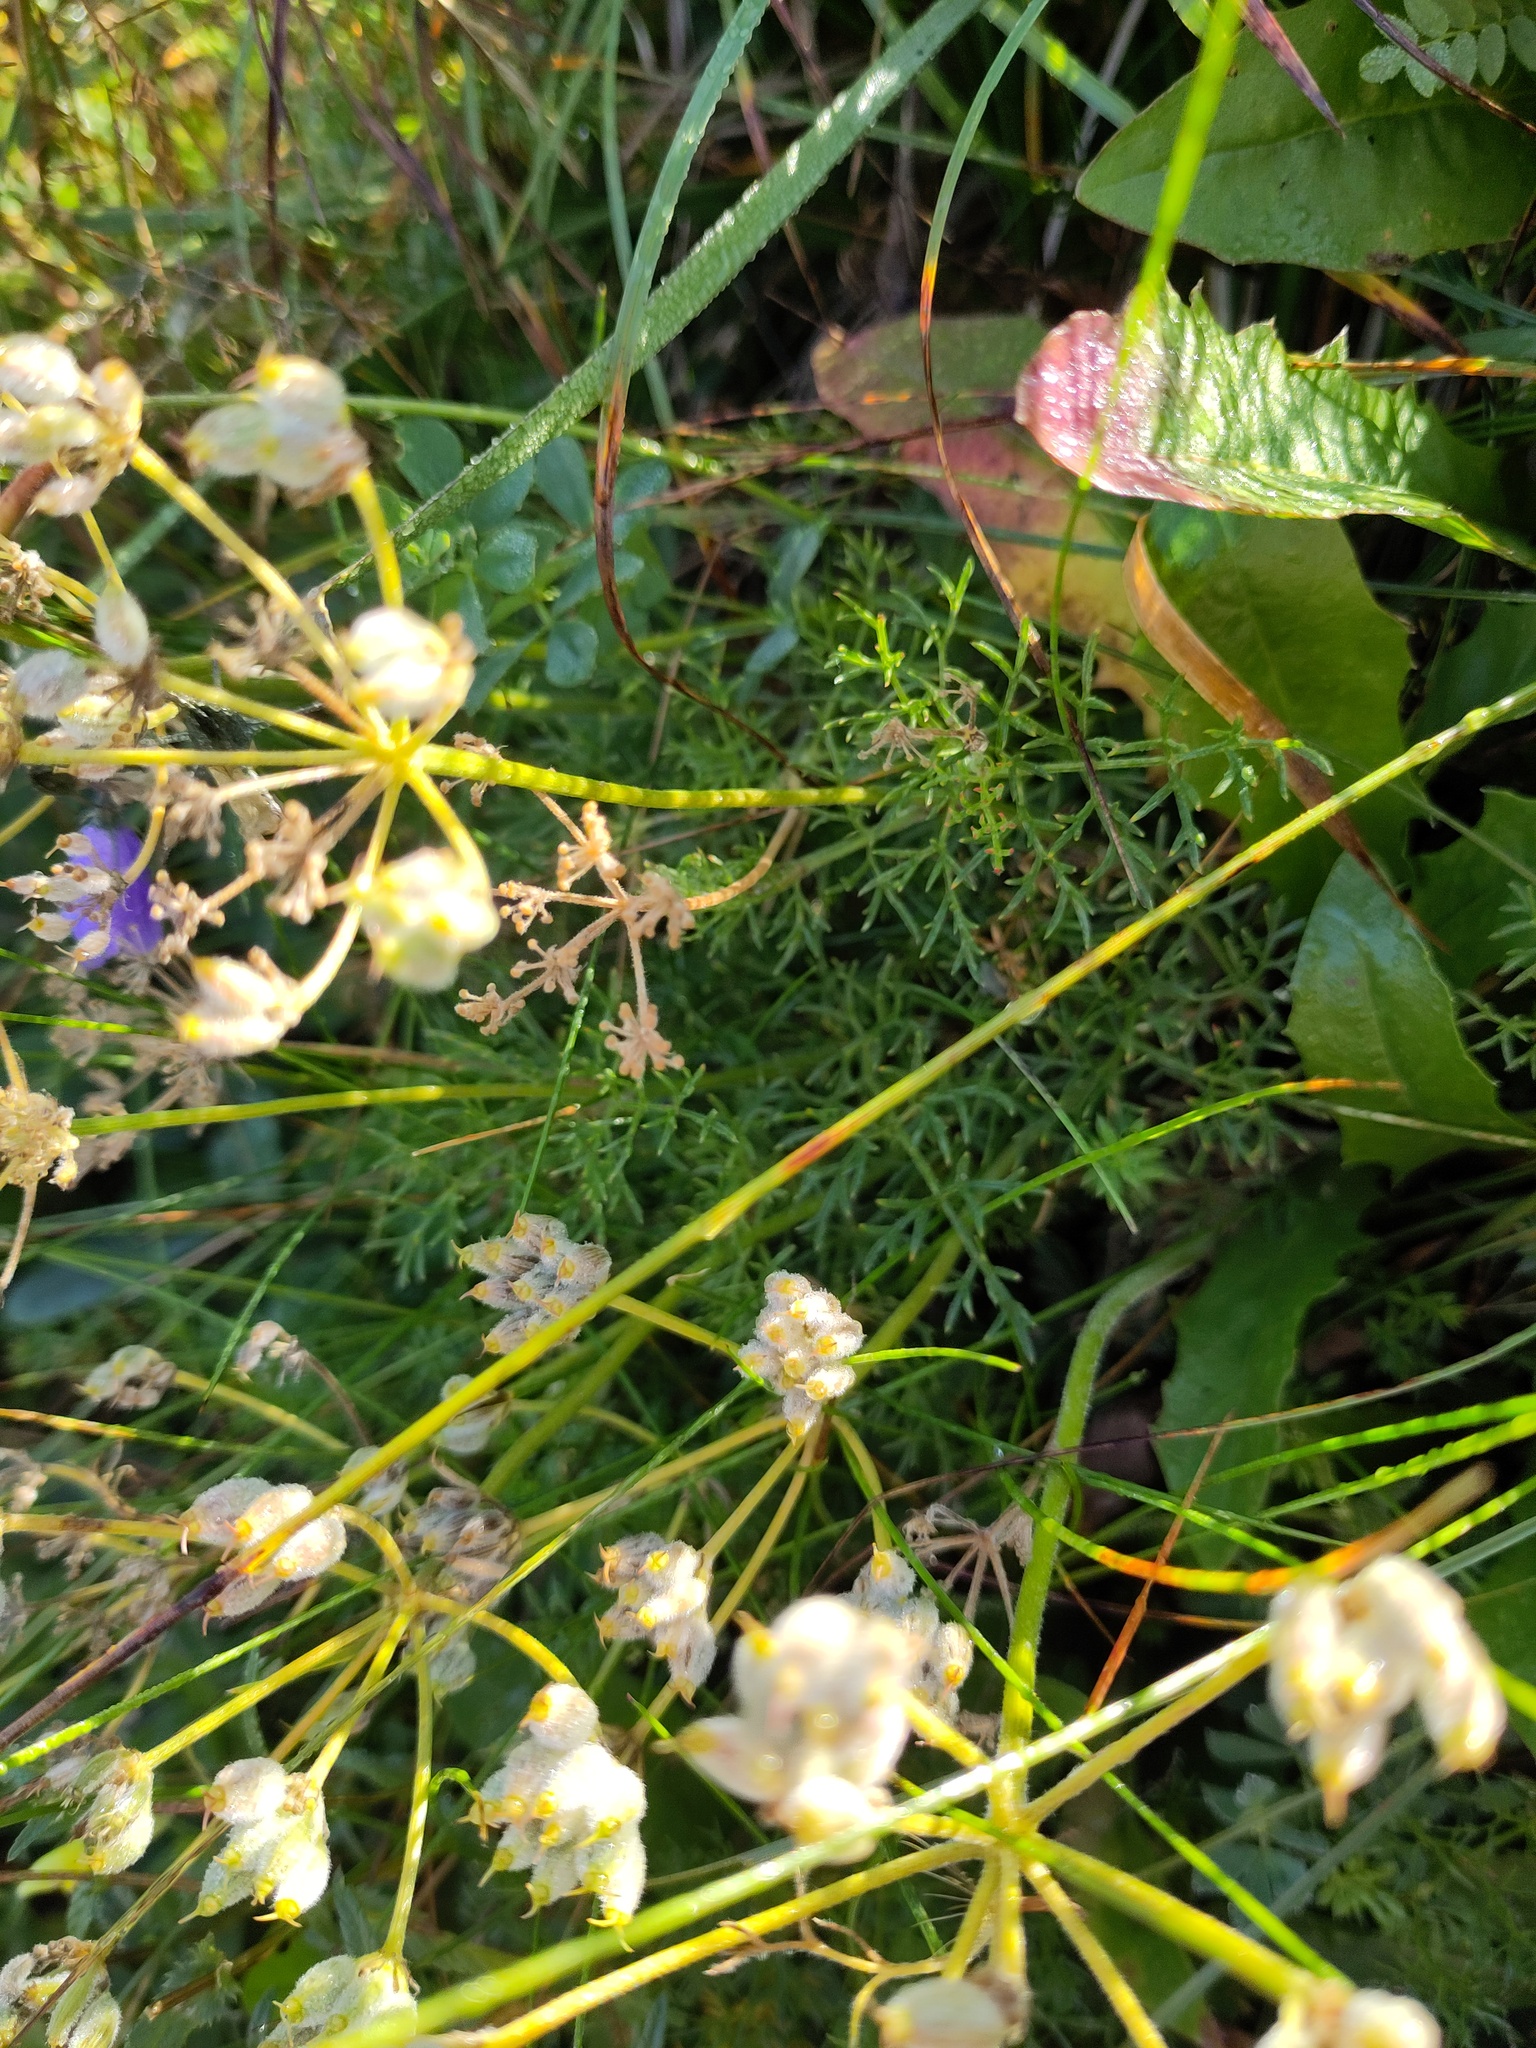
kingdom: Plantae
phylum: Tracheophyta
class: Magnoliopsida
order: Apiales
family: Apiaceae
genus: Athamanta
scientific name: Athamanta cretensis
